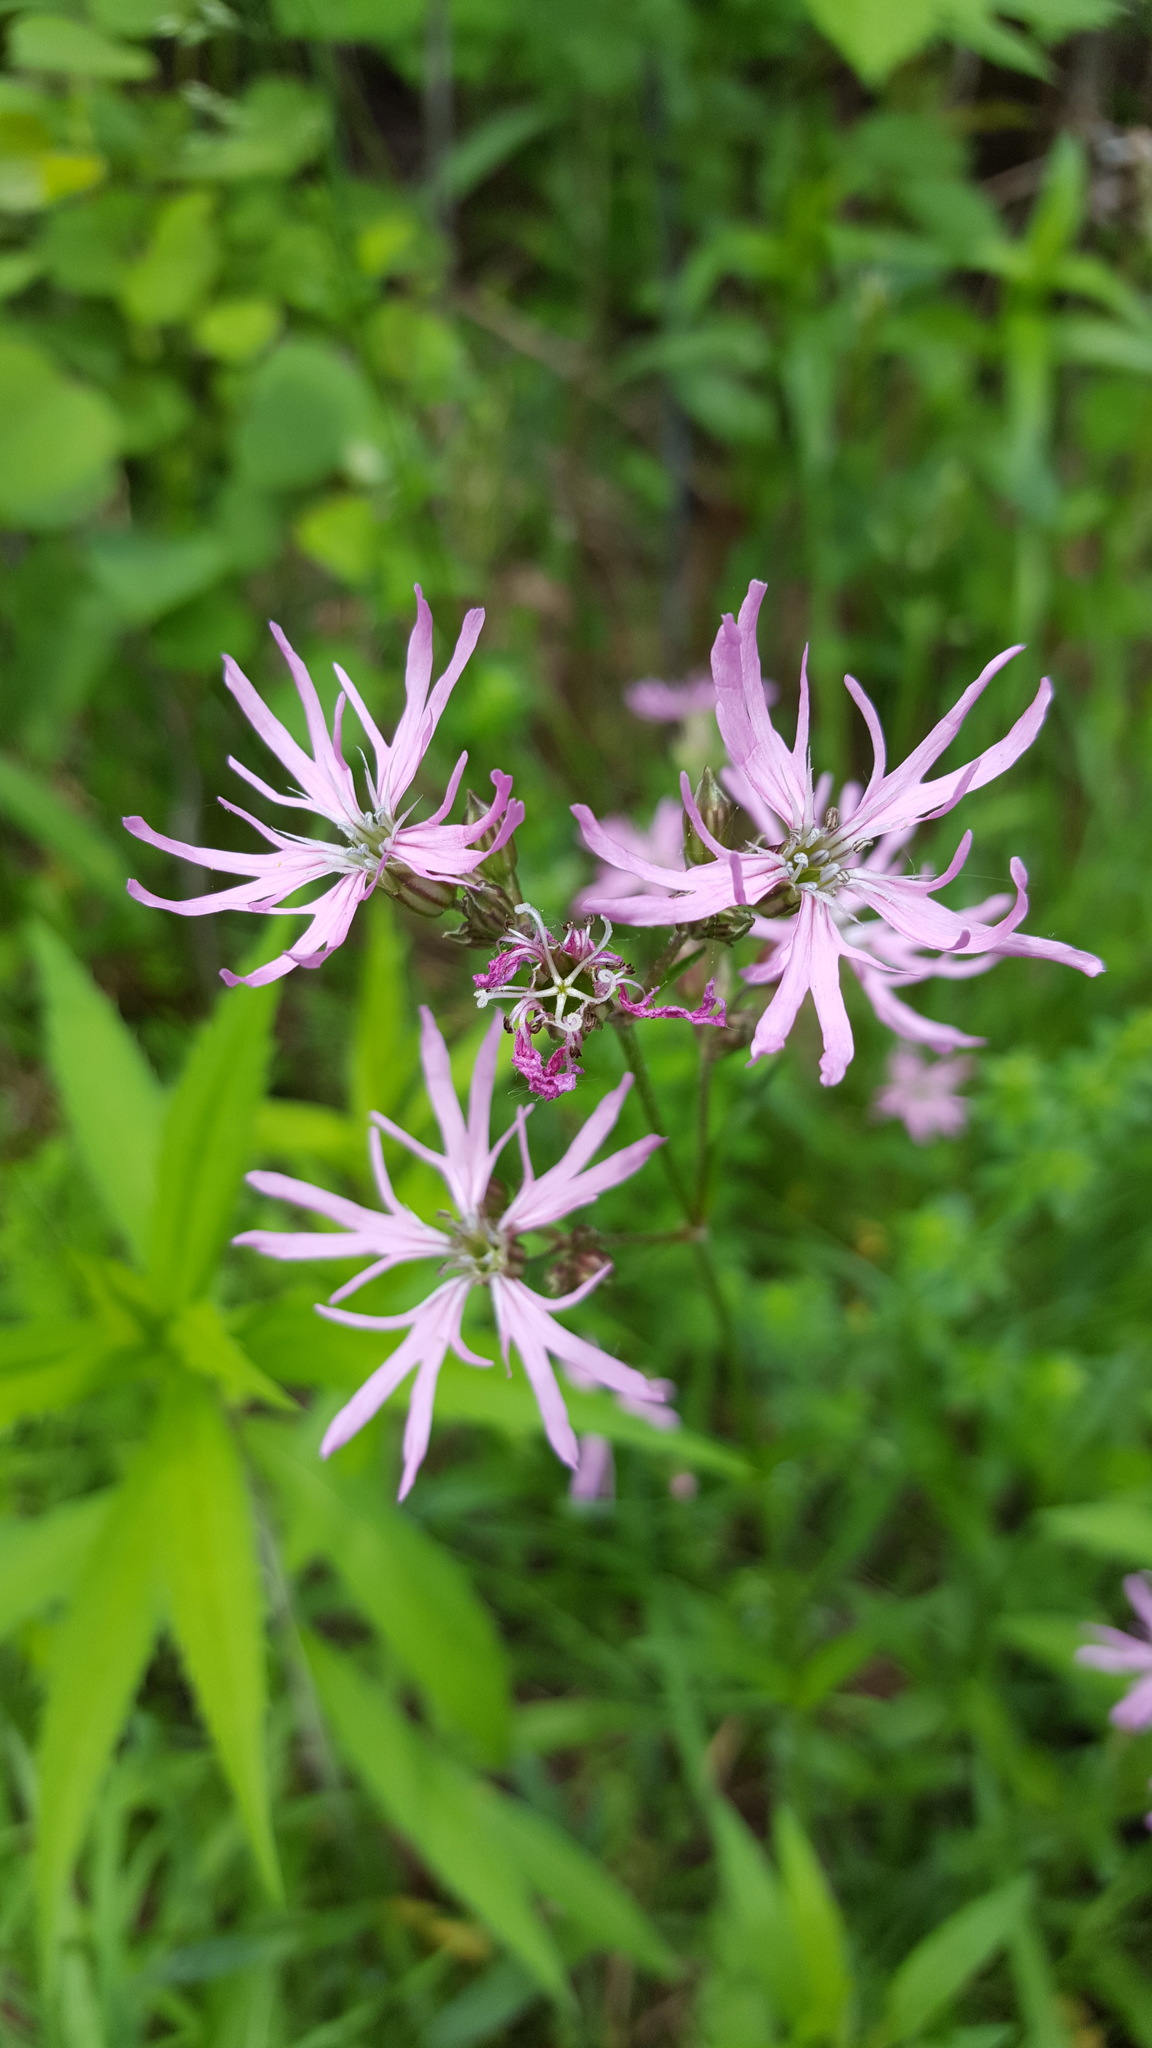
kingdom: Plantae
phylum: Tracheophyta
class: Magnoliopsida
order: Caryophyllales
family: Caryophyllaceae
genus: Silene
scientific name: Silene flos-cuculi
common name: Ragged-robin
